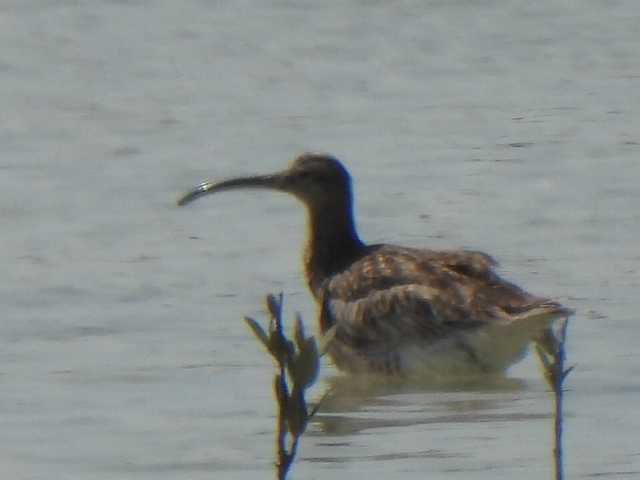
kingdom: Animalia
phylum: Chordata
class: Aves
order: Charadriiformes
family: Scolopacidae
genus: Numenius
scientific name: Numenius phaeopus
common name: Whimbrel
